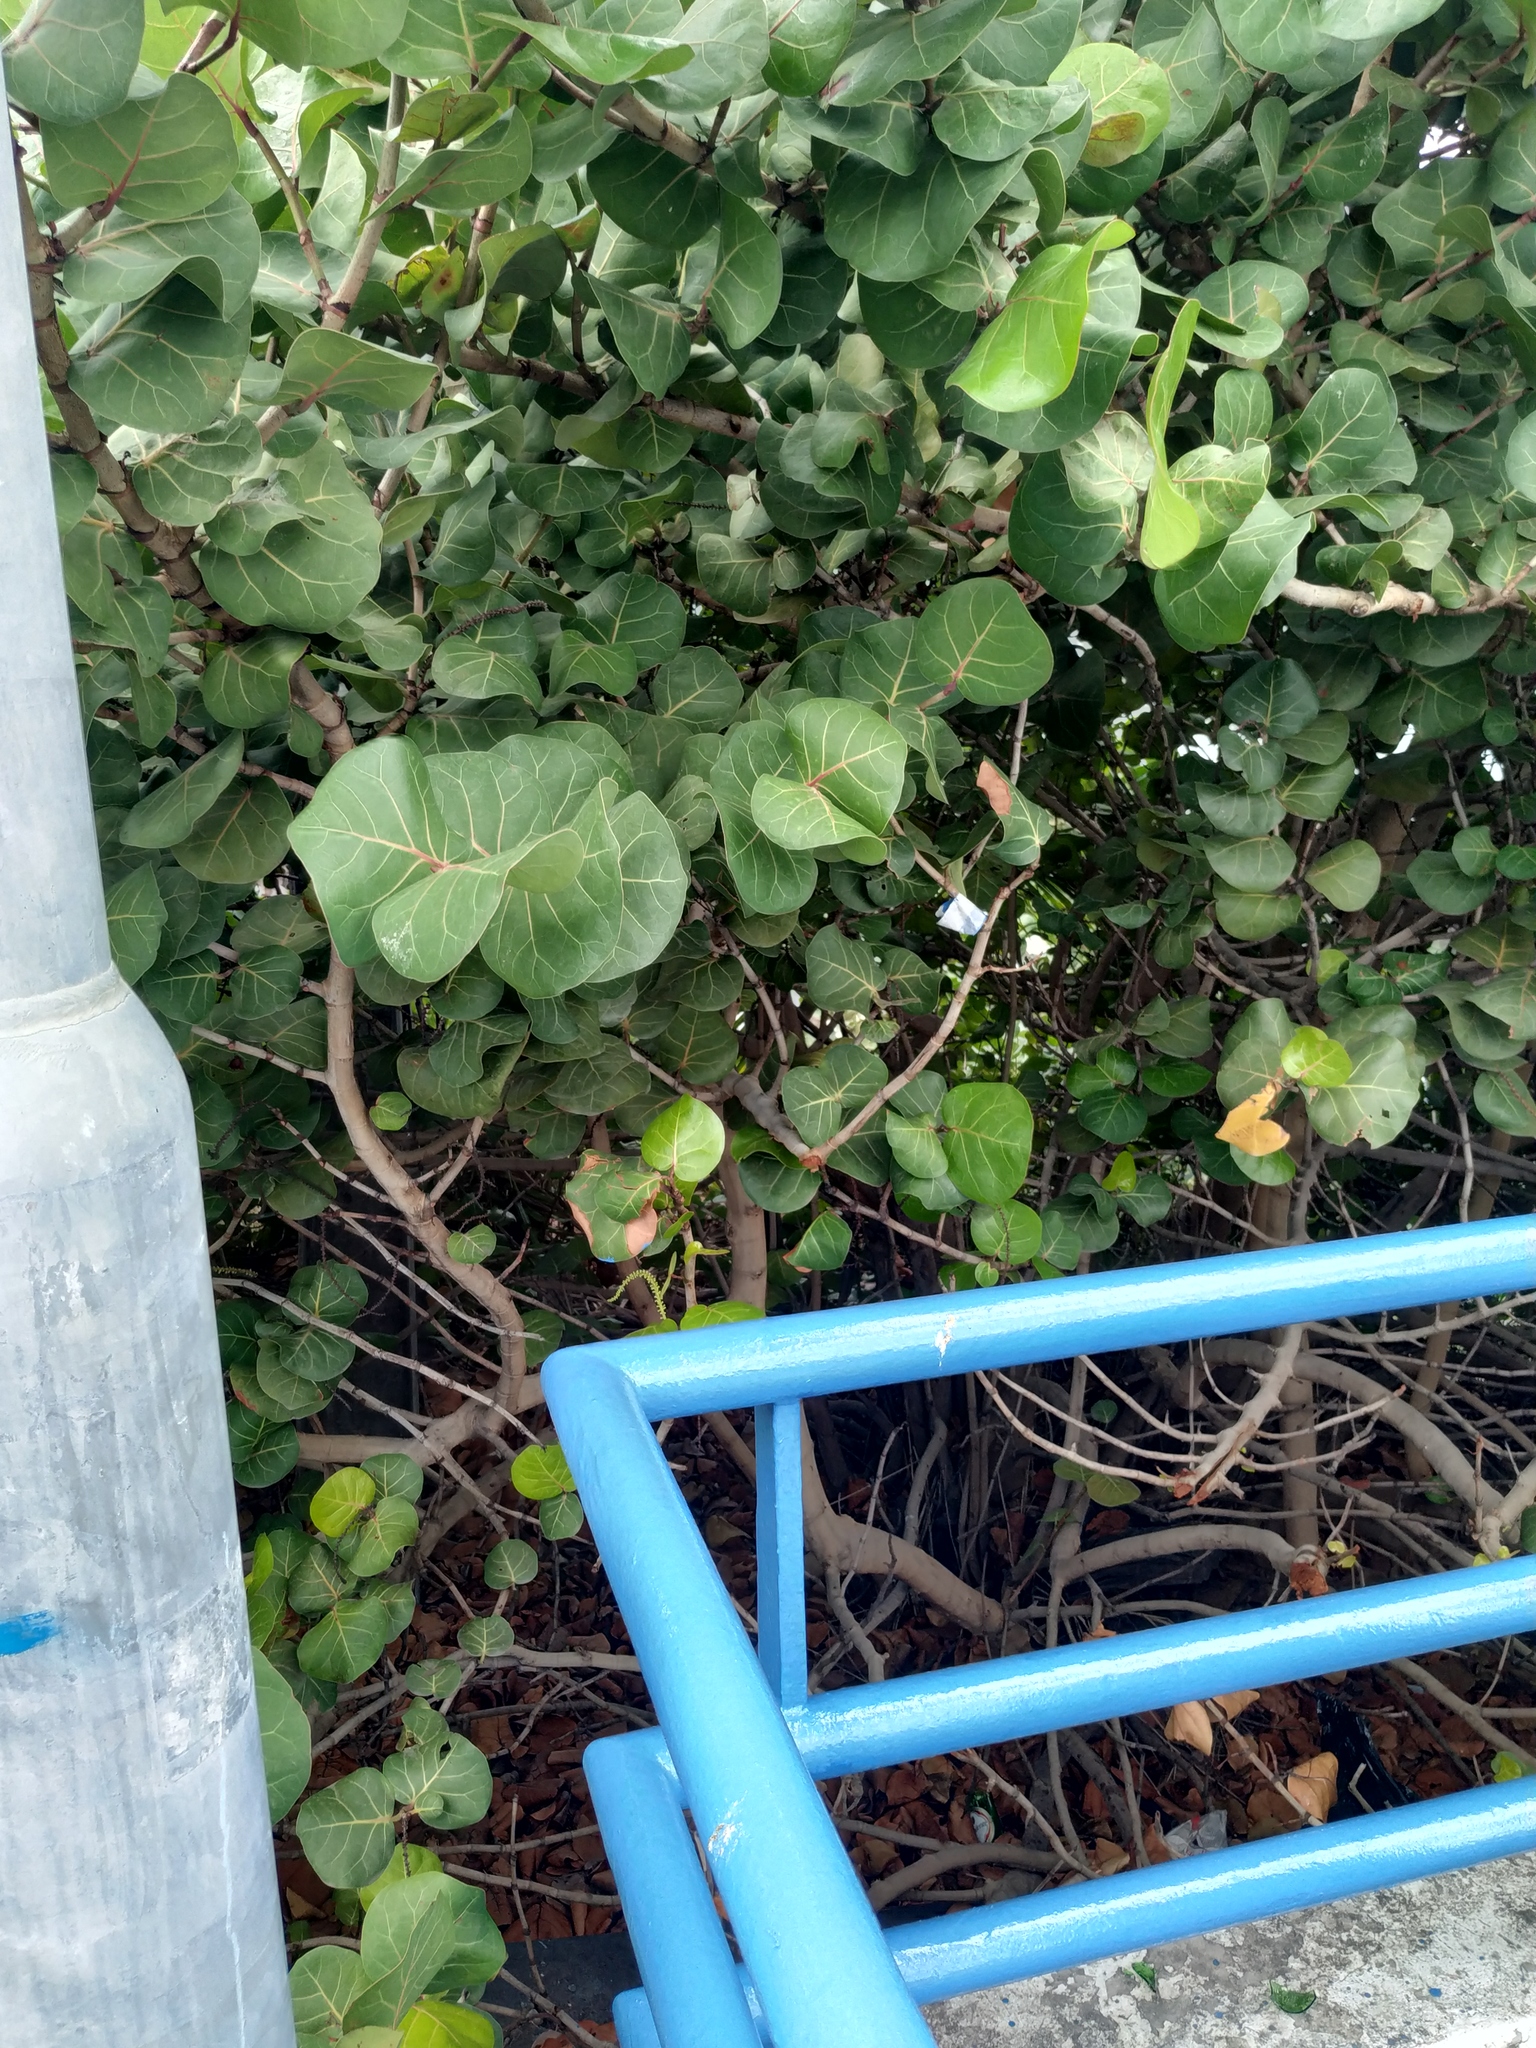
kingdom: Plantae
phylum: Tracheophyta
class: Magnoliopsida
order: Caryophyllales
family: Polygonaceae
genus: Coccoloba
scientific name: Coccoloba uvifera
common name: Seagrape
